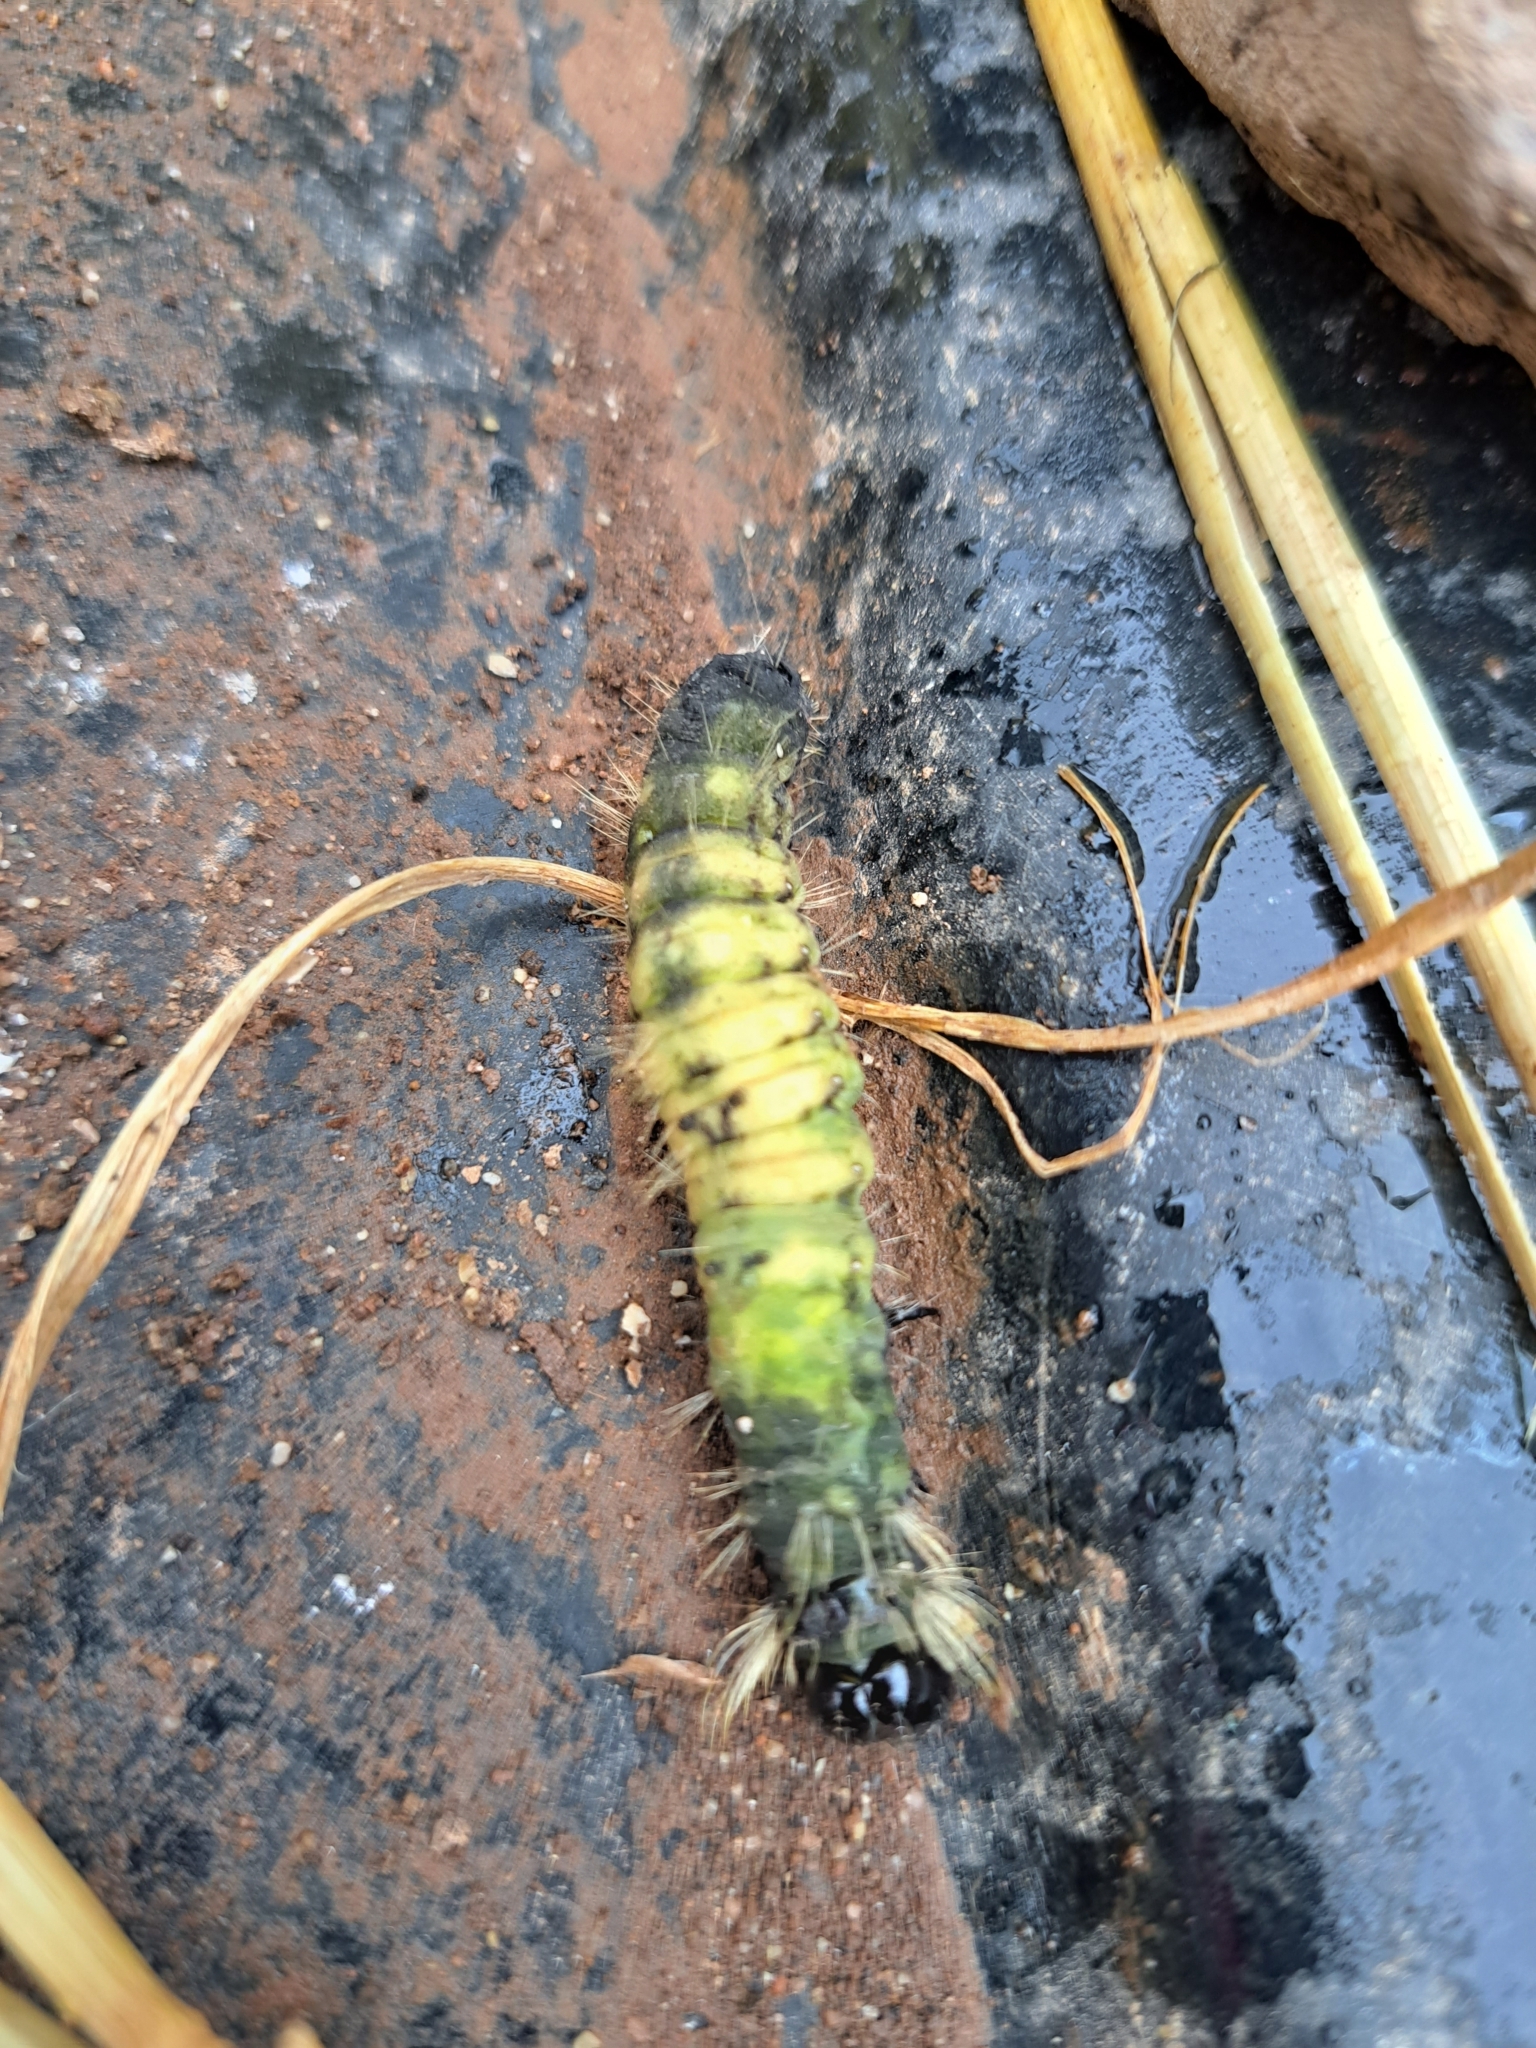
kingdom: Animalia
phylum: Arthropoda
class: Insecta
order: Lepidoptera
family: Noctuidae
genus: Acronicta
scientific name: Acronicta americana
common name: American dagger
